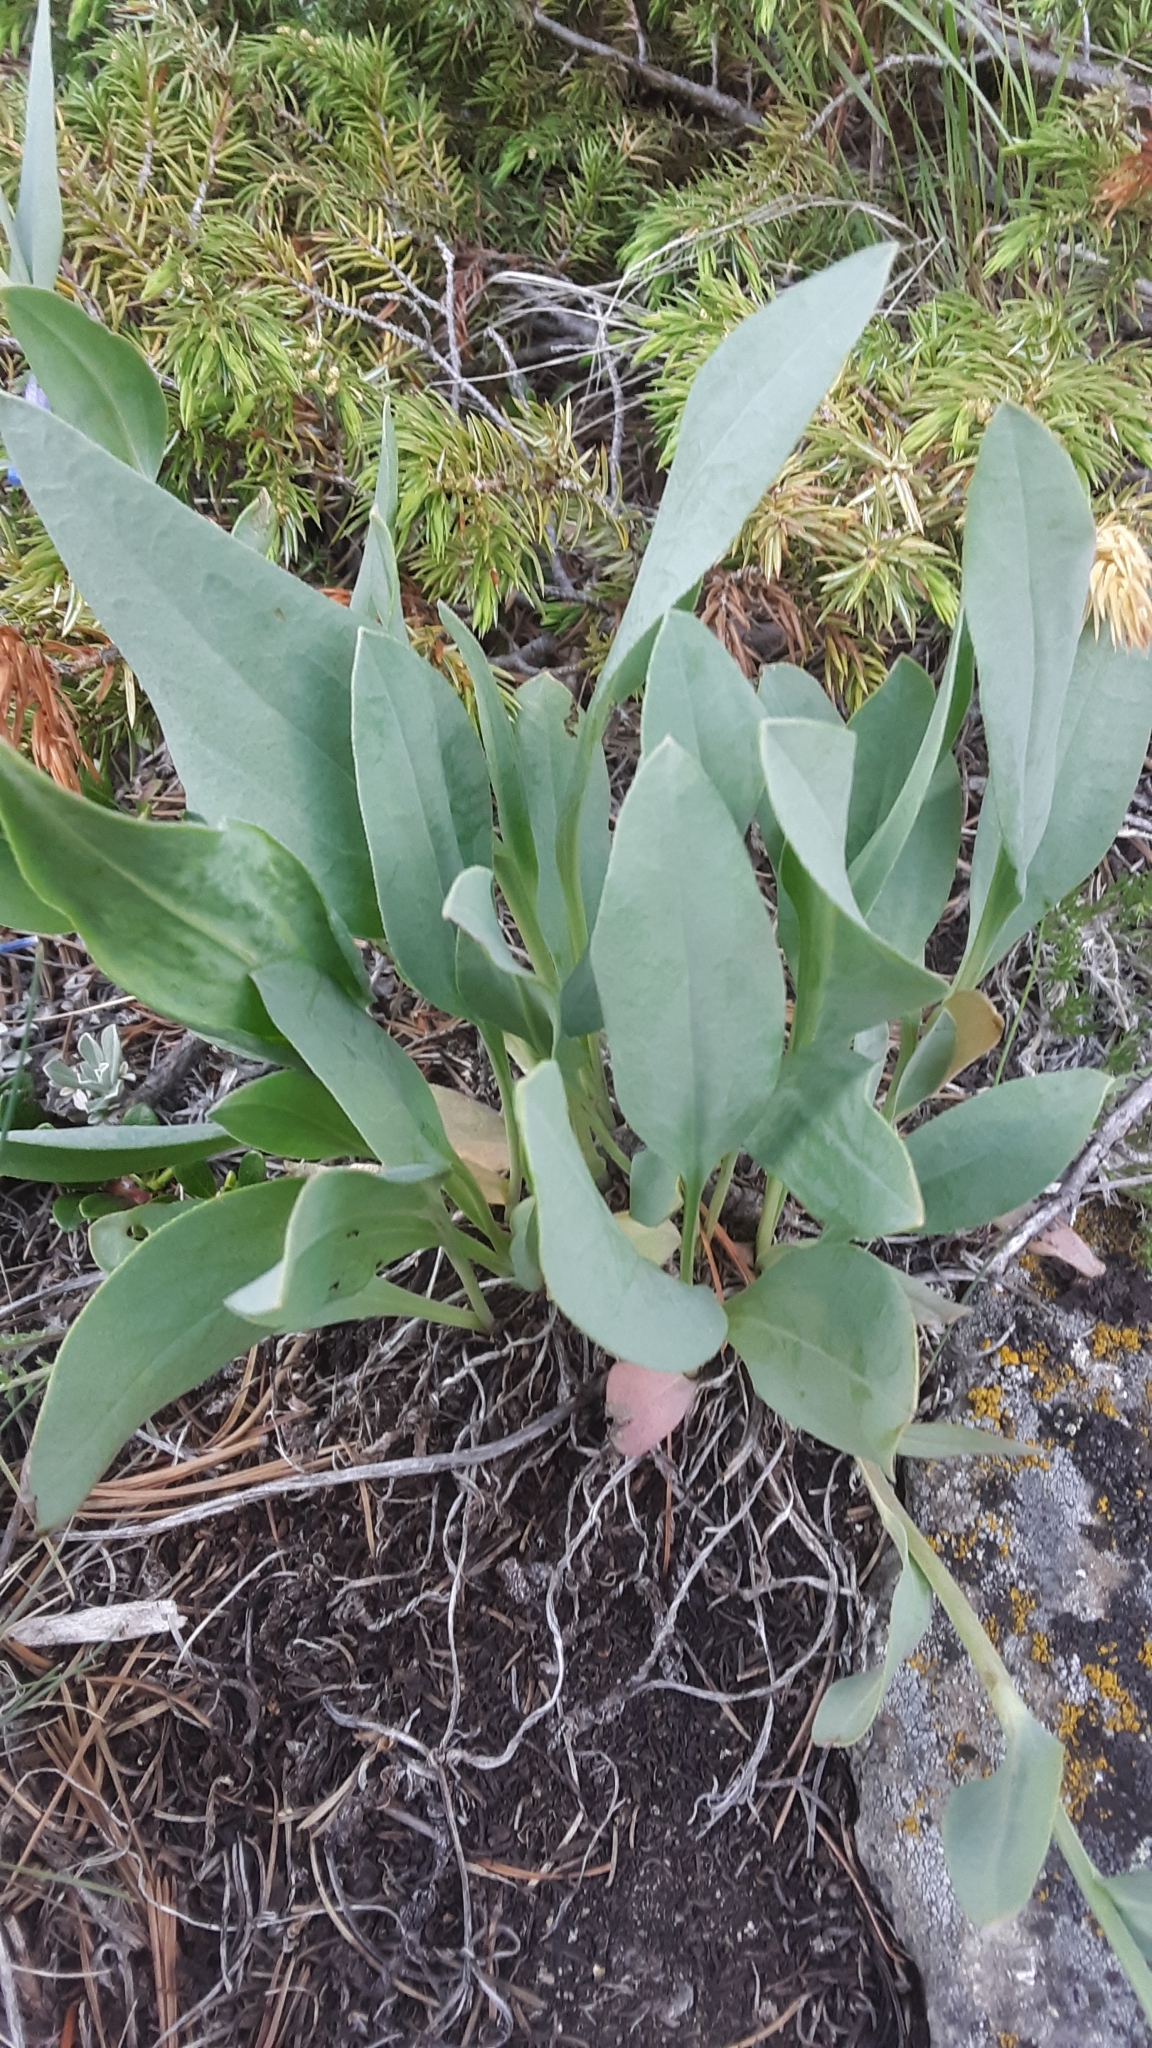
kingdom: Plantae
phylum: Tracheophyta
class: Magnoliopsida
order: Boraginales
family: Boraginaceae
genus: Mertensia
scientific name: Mertensia oblongifolia
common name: Sagebrush bluebells
